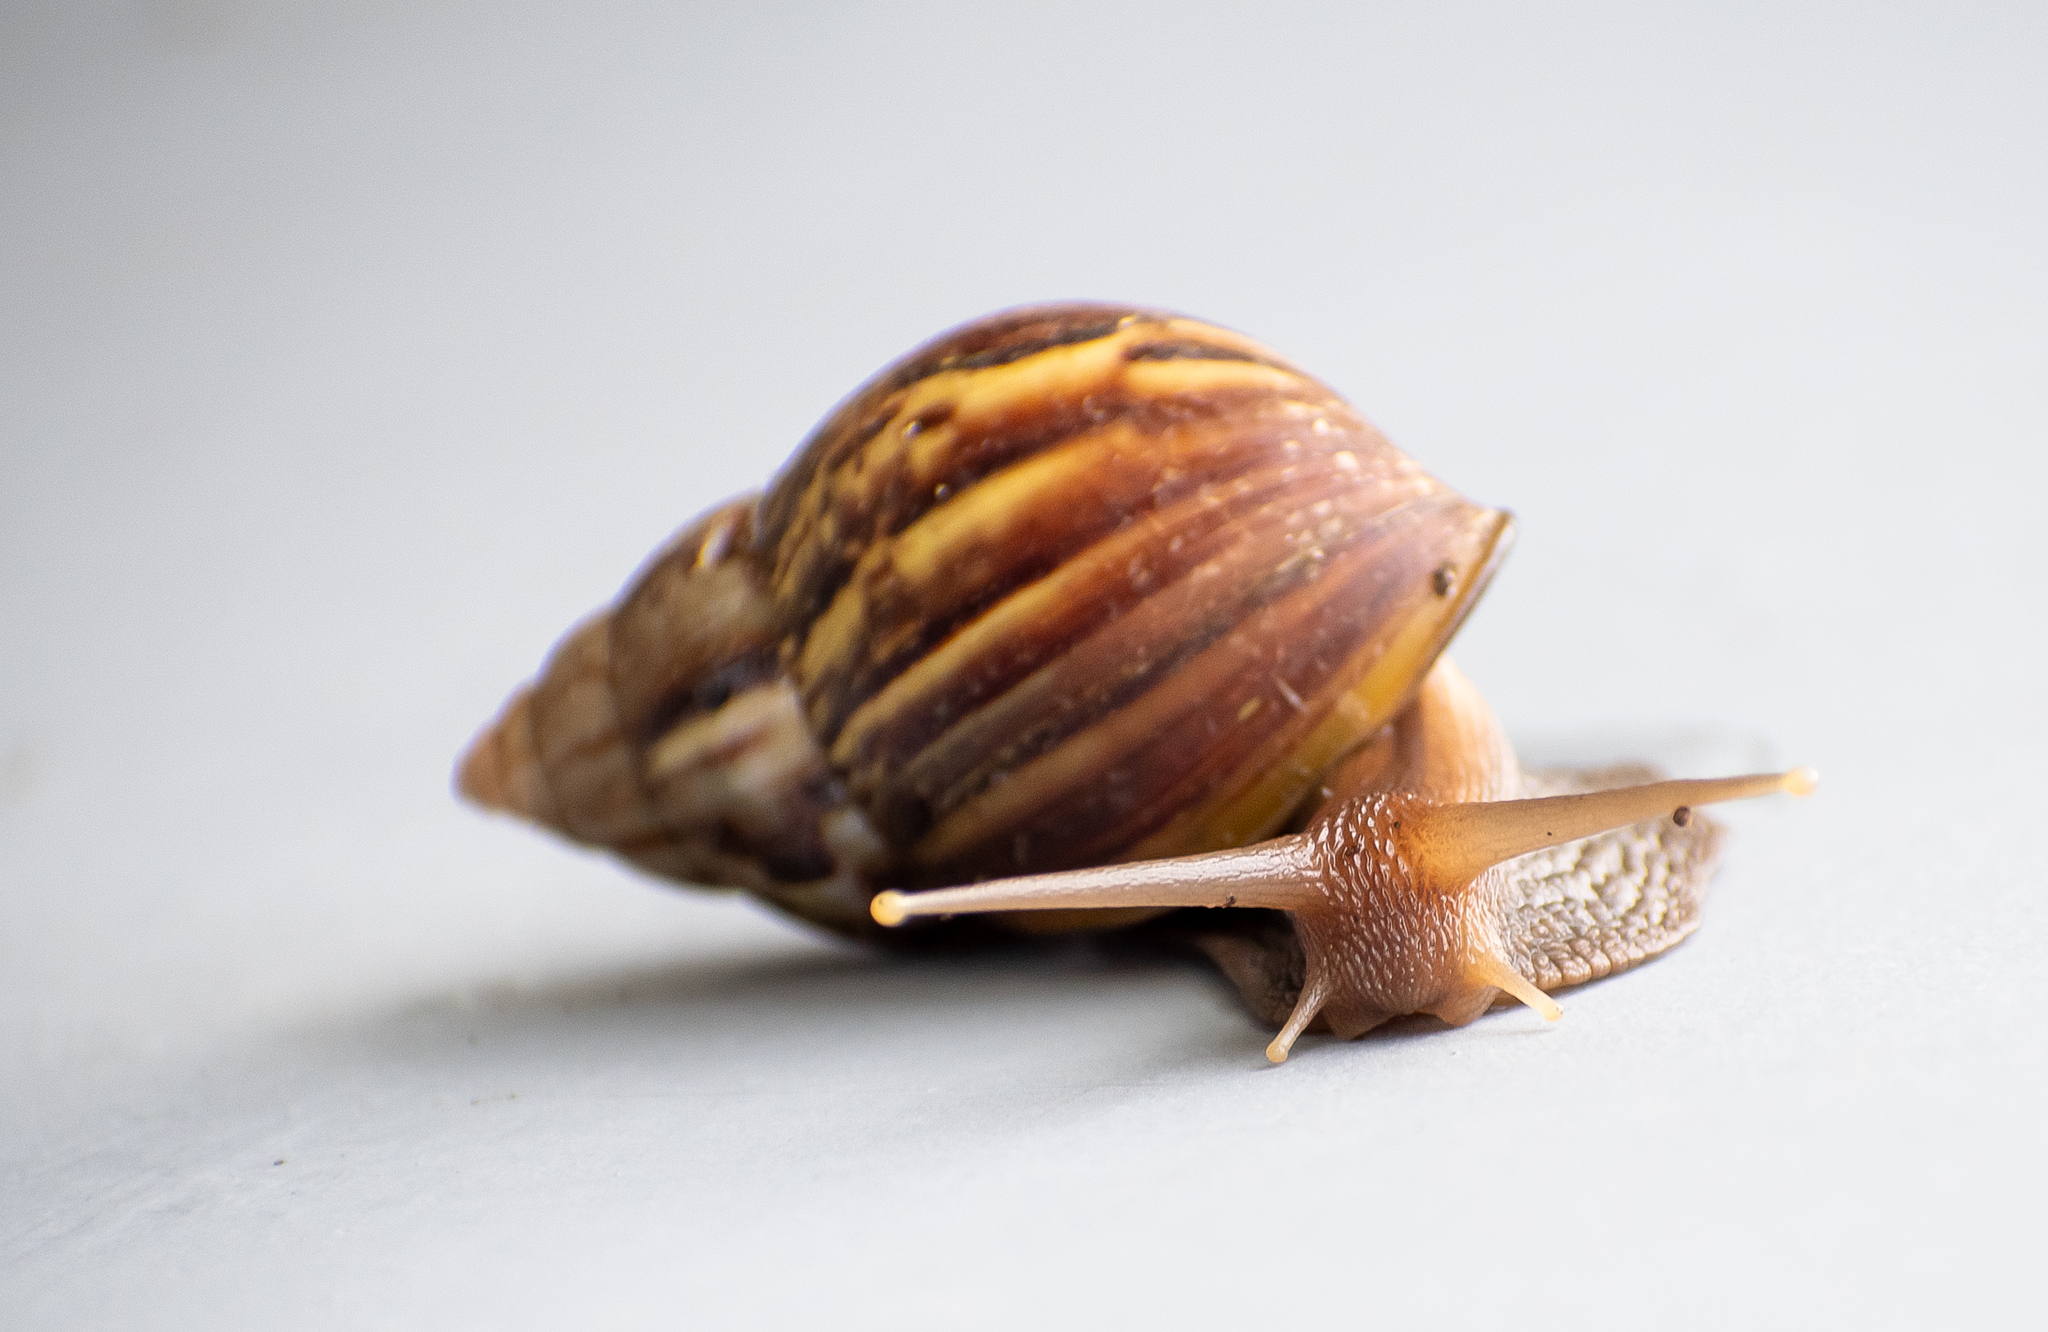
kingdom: Animalia
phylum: Mollusca
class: Gastropoda
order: Stylommatophora
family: Achatinidae
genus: Lissachatina
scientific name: Lissachatina fulica
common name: Giant african snail
